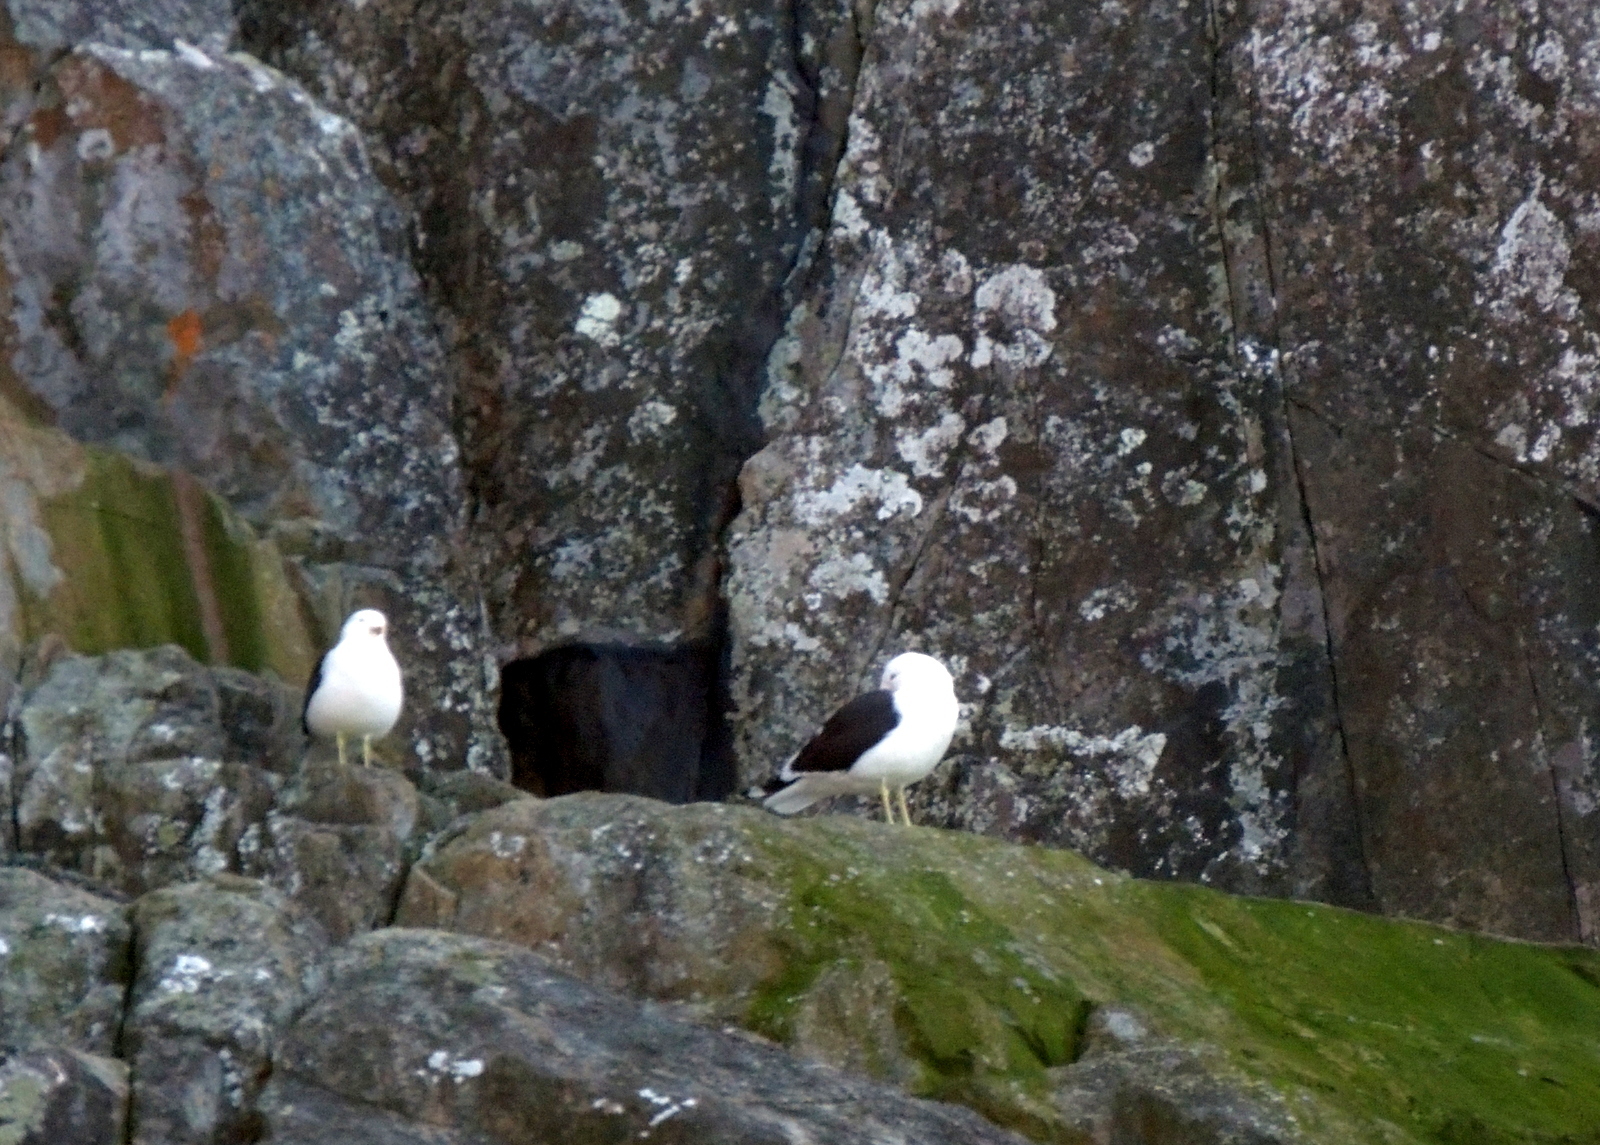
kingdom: Animalia
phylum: Chordata
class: Aves
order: Charadriiformes
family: Laridae
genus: Larus
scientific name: Larus dominicanus
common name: Kelp gull
